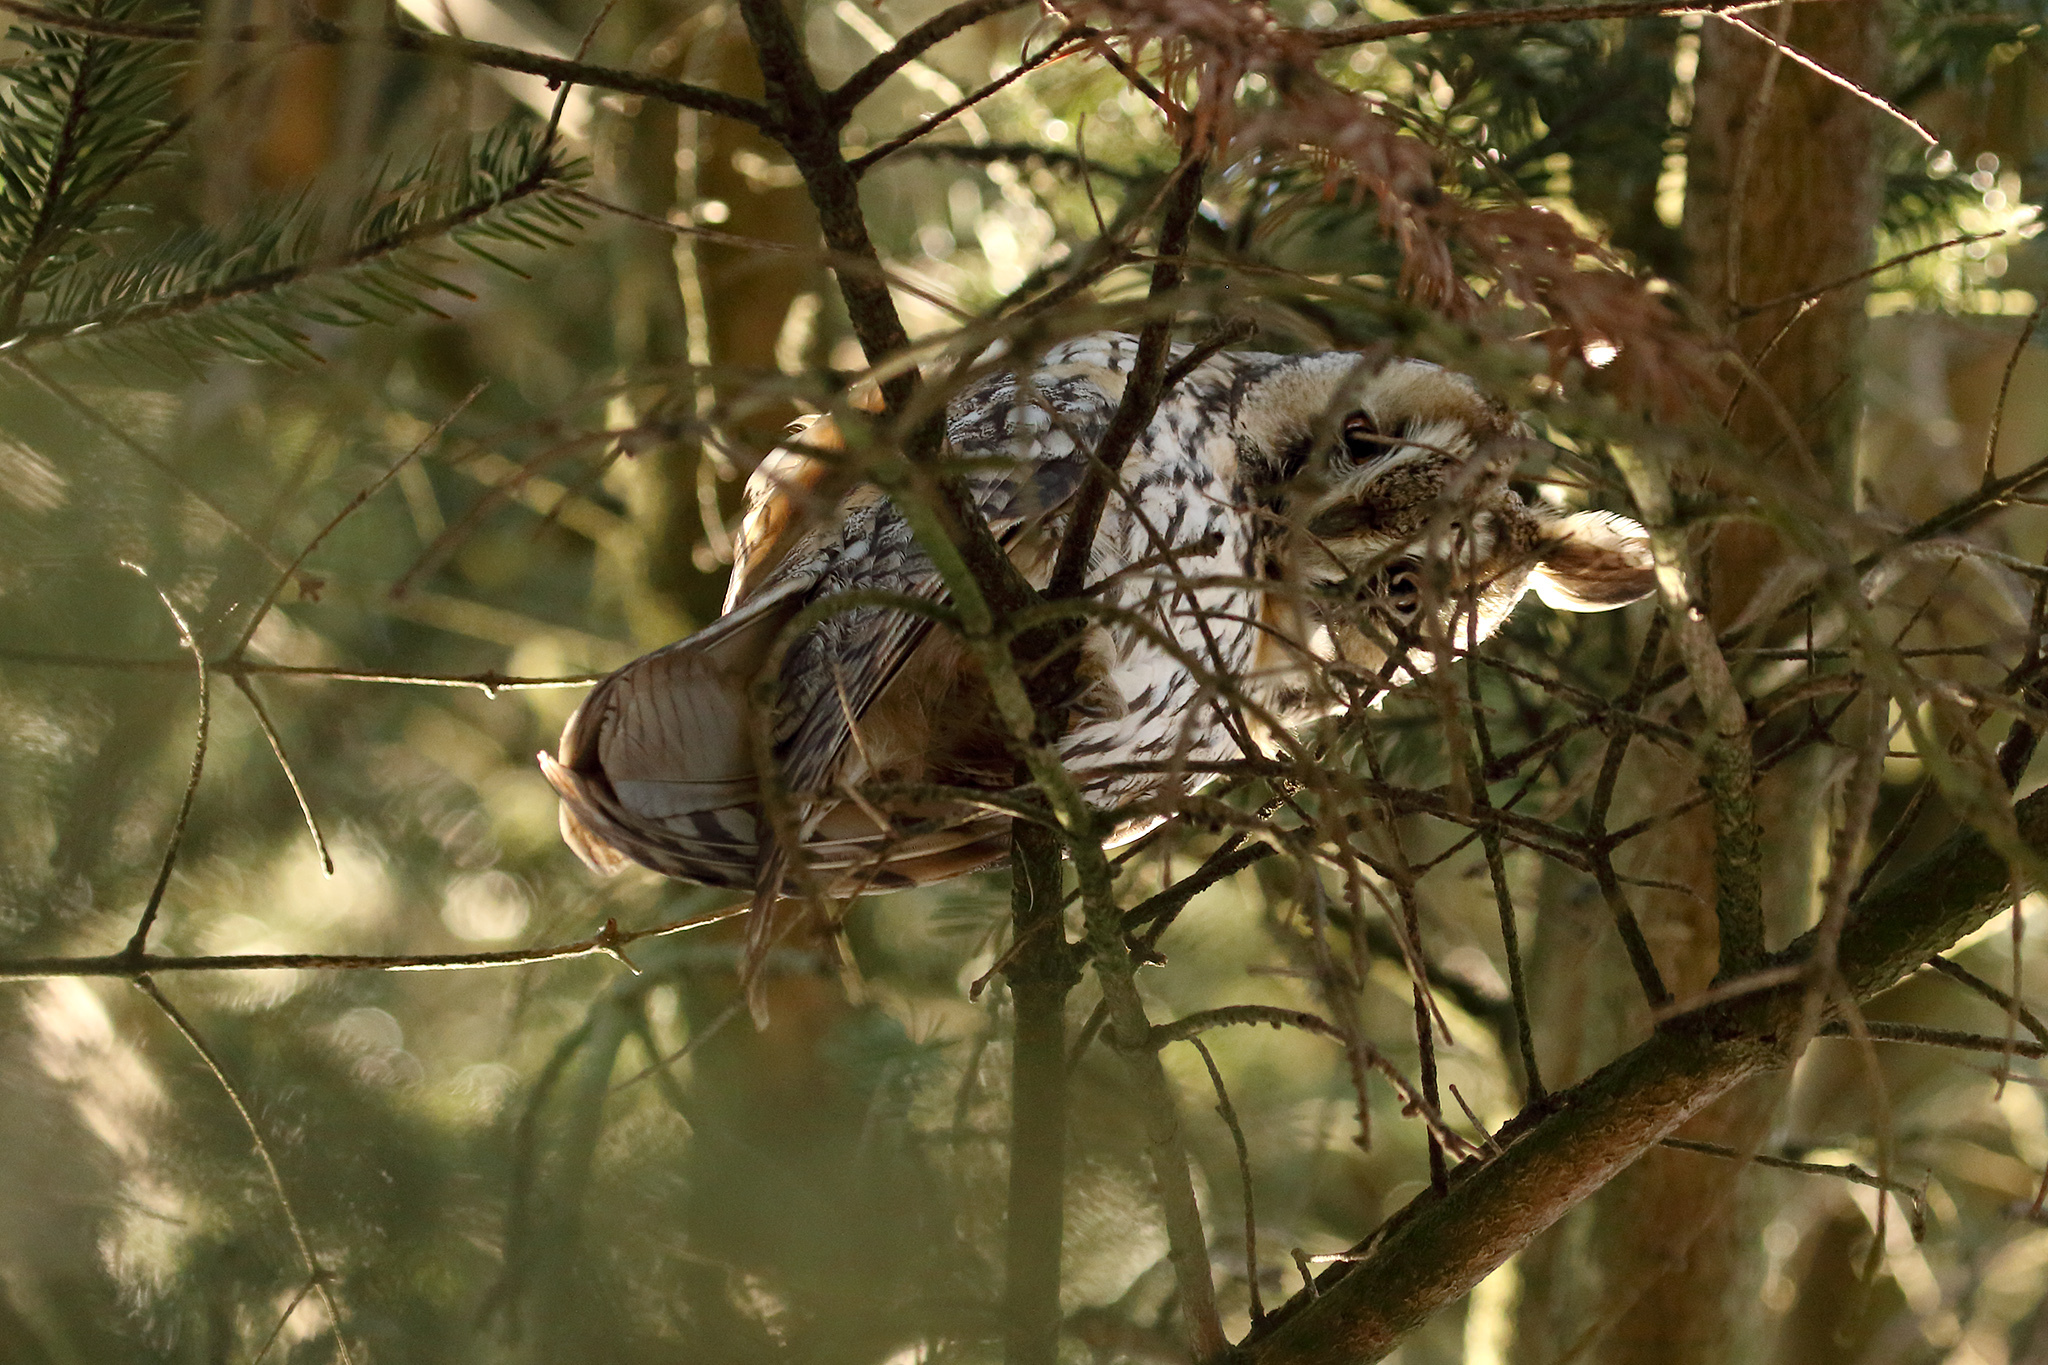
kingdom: Animalia
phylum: Chordata
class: Aves
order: Strigiformes
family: Strigidae
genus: Asio
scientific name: Asio otus
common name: Long-eared owl
